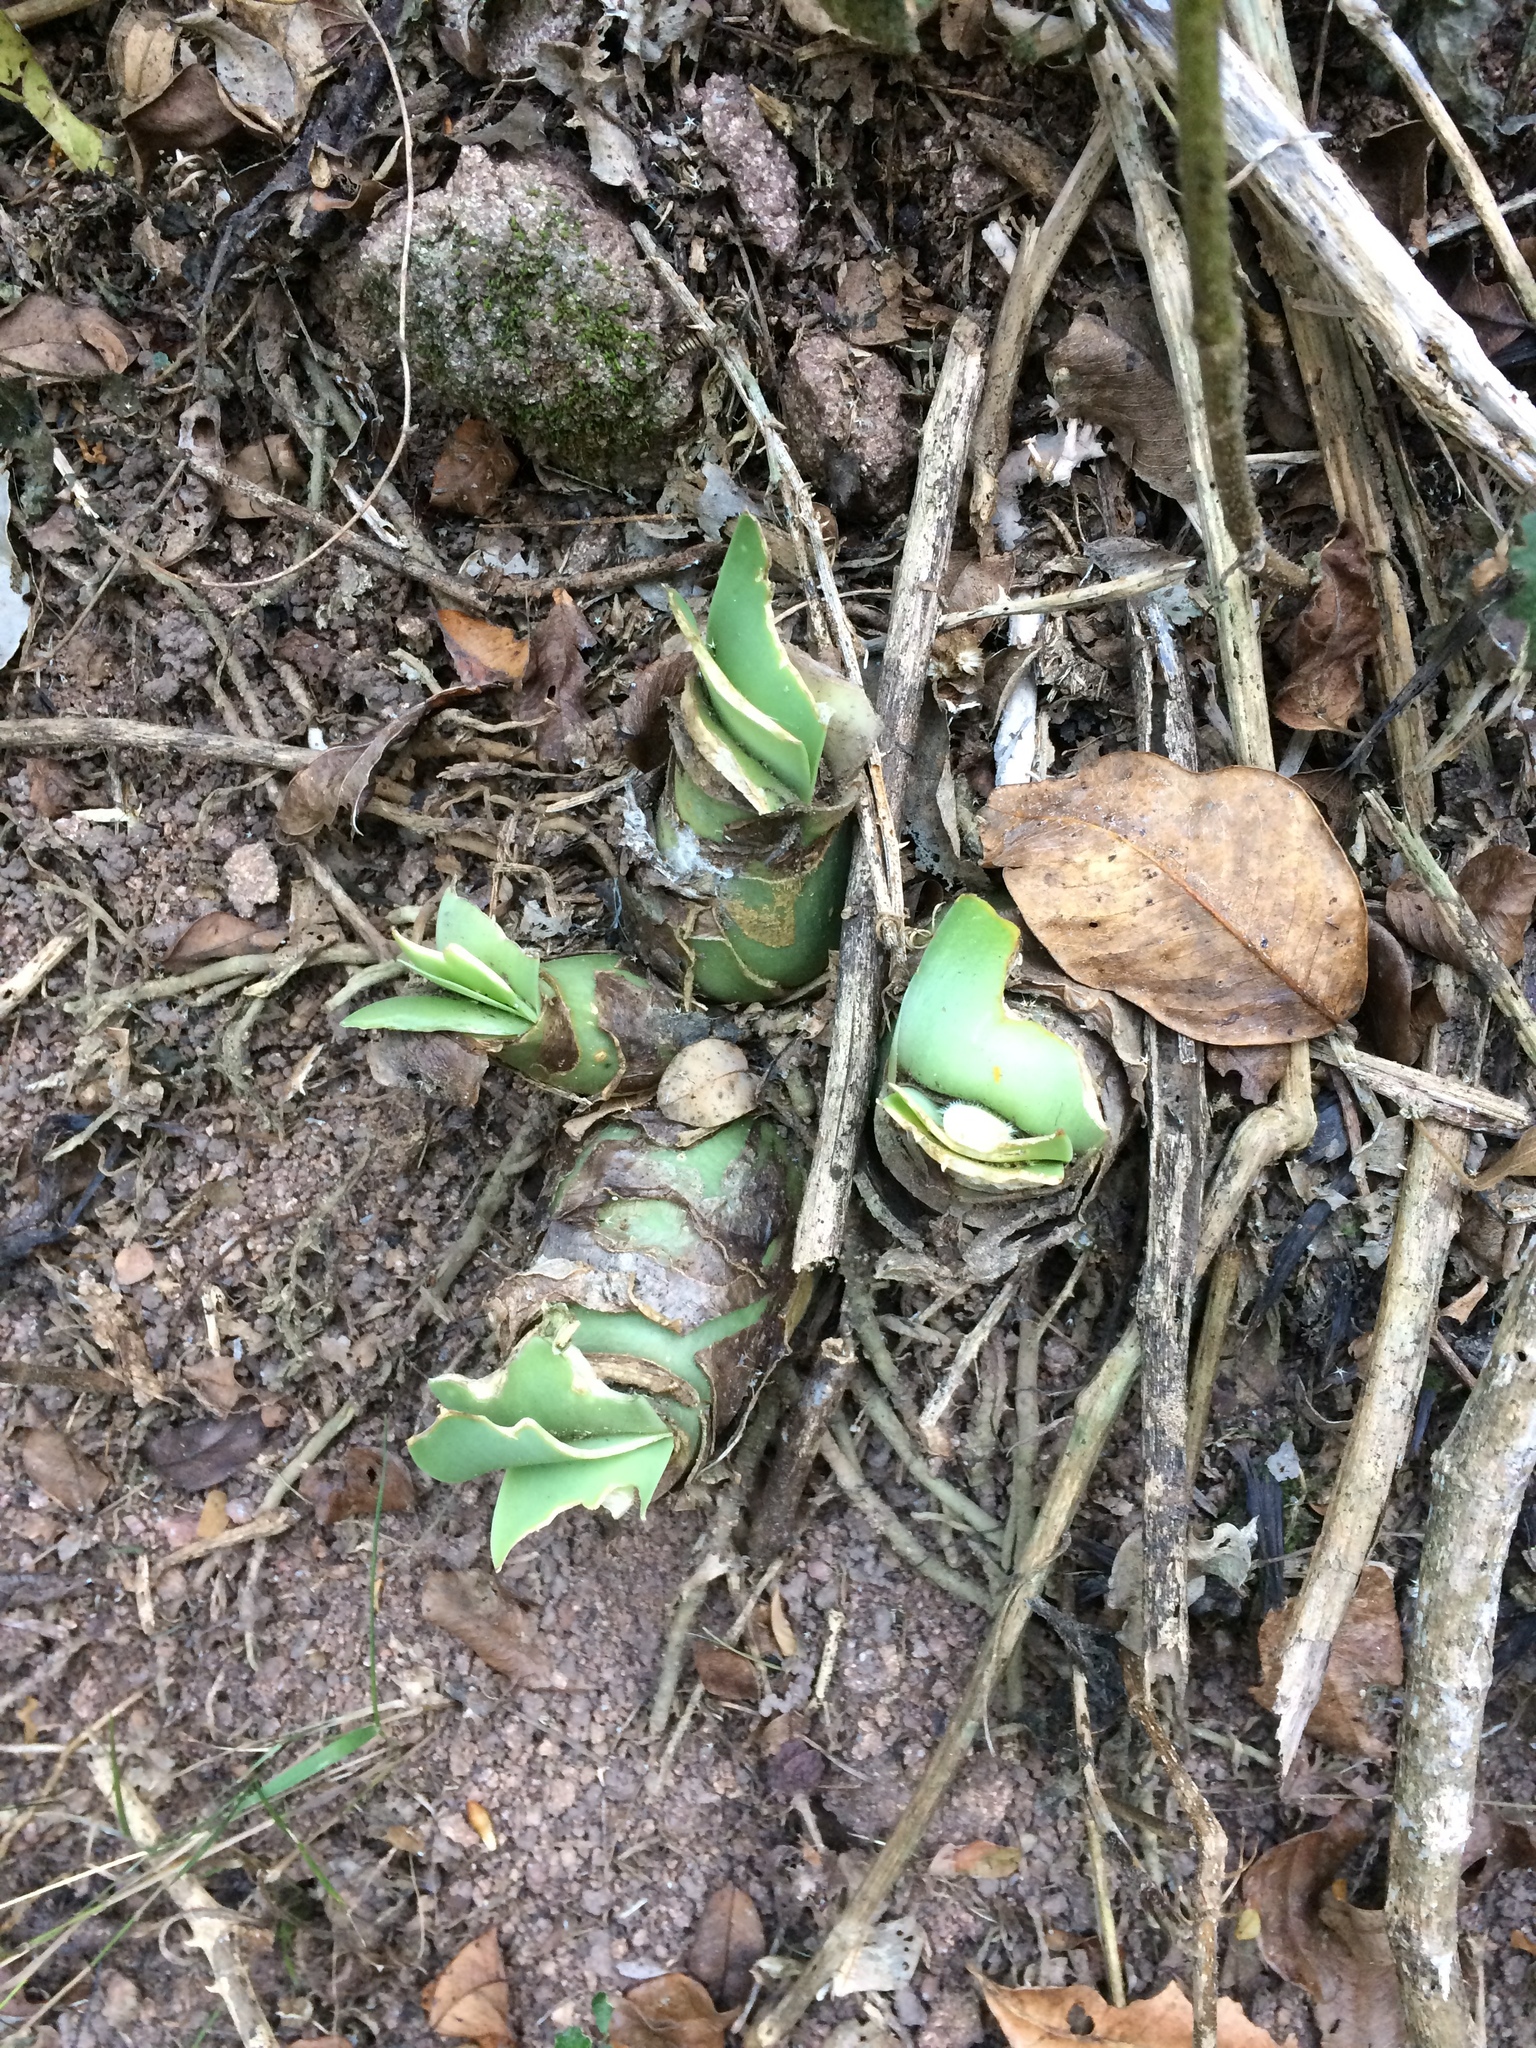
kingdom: Plantae
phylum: Tracheophyta
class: Liliopsida
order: Asparagales
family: Amaryllidaceae
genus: Haemanthus
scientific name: Haemanthus albiflos
